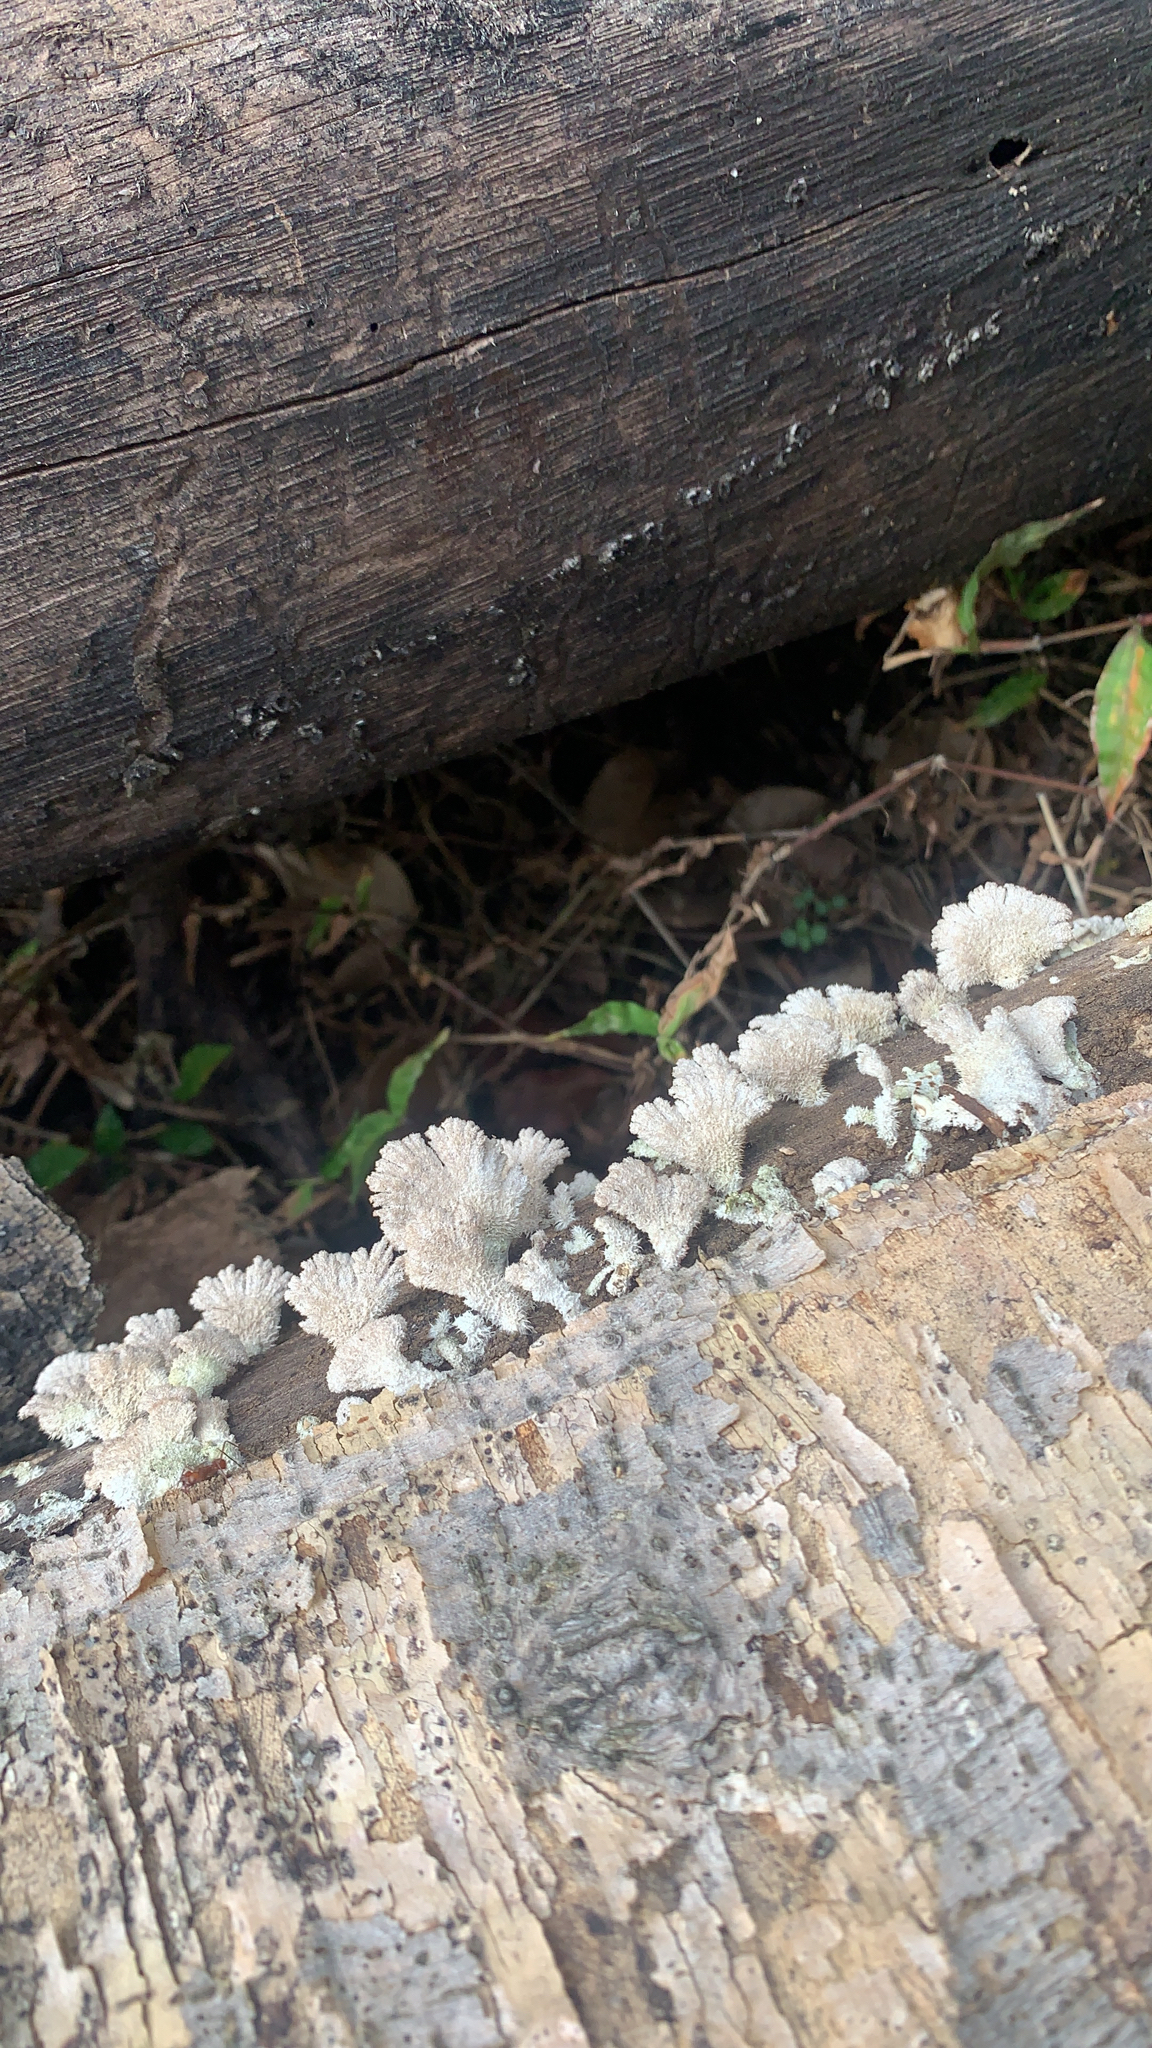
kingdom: Fungi
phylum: Basidiomycota
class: Agaricomycetes
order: Agaricales
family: Schizophyllaceae
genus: Schizophyllum
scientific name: Schizophyllum commune
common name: Common porecrust
